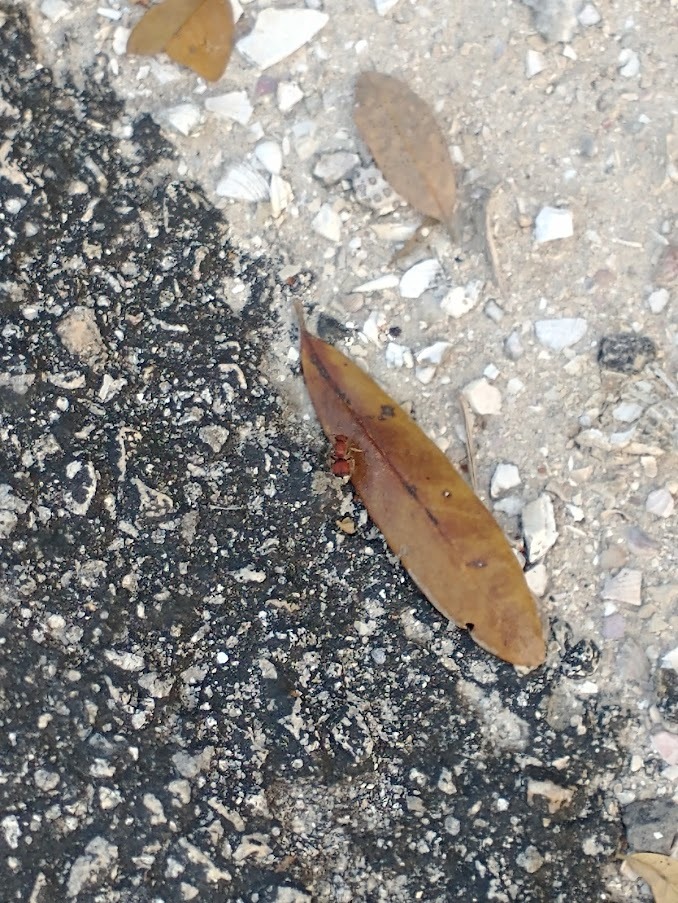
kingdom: Animalia
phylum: Arthropoda
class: Insecta
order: Hymenoptera
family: Mutillidae
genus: Pseudomethoca
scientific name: Pseudomethoca sanbornii
